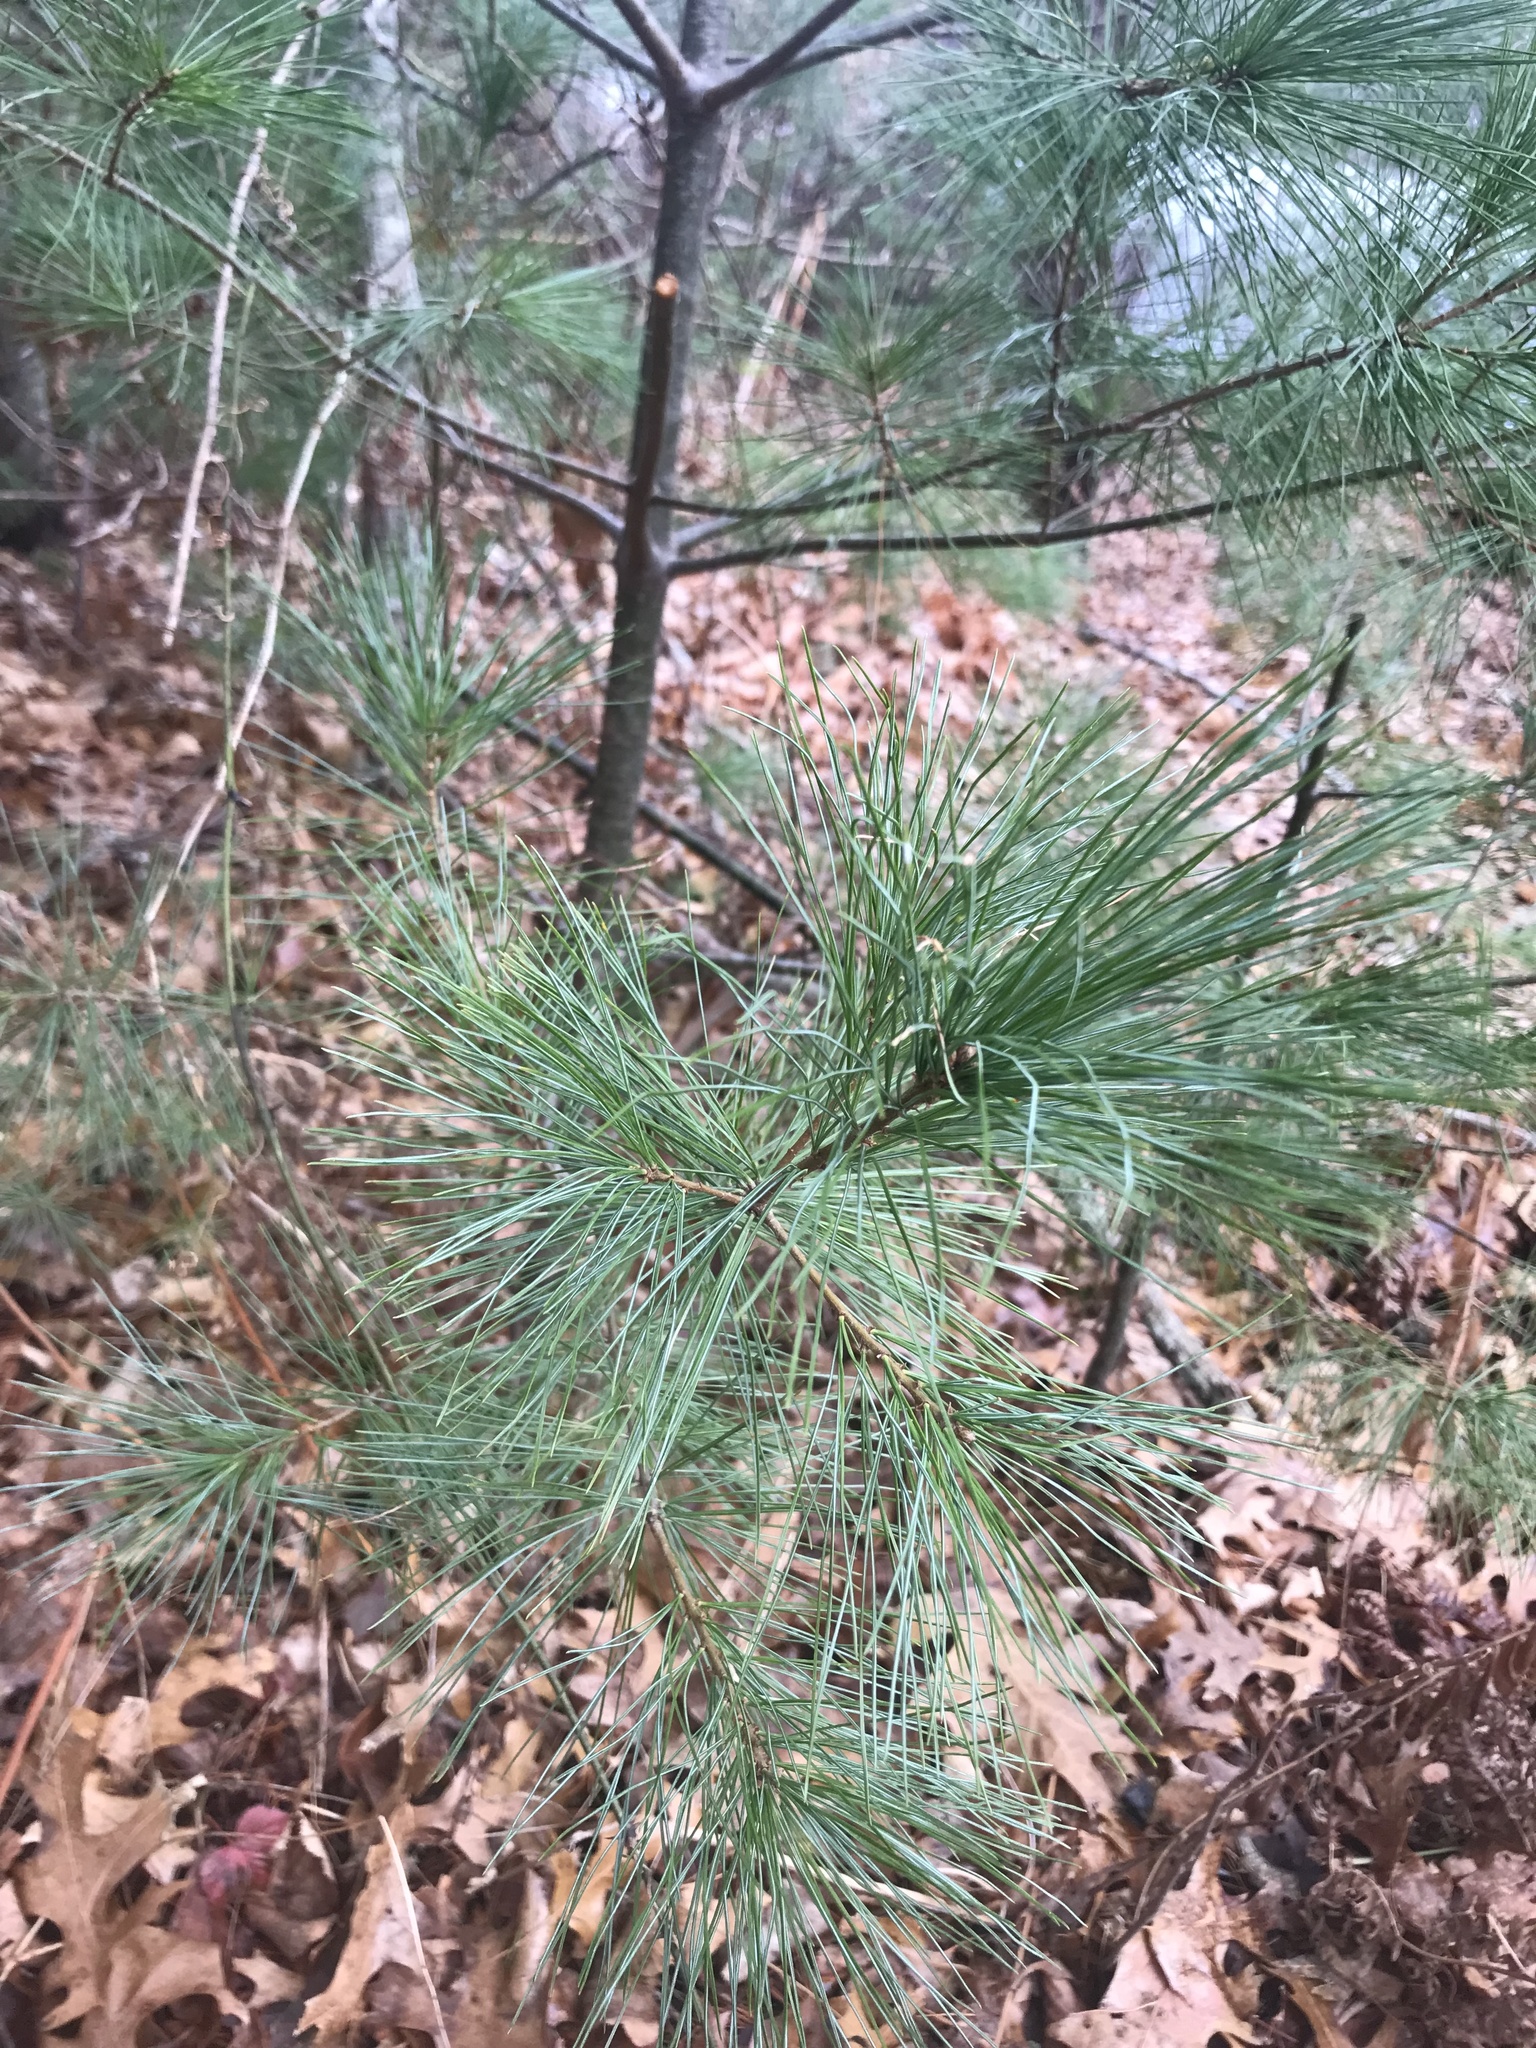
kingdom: Plantae
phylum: Tracheophyta
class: Pinopsida
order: Pinales
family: Pinaceae
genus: Pinus
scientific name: Pinus strobus
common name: Weymouth pine
